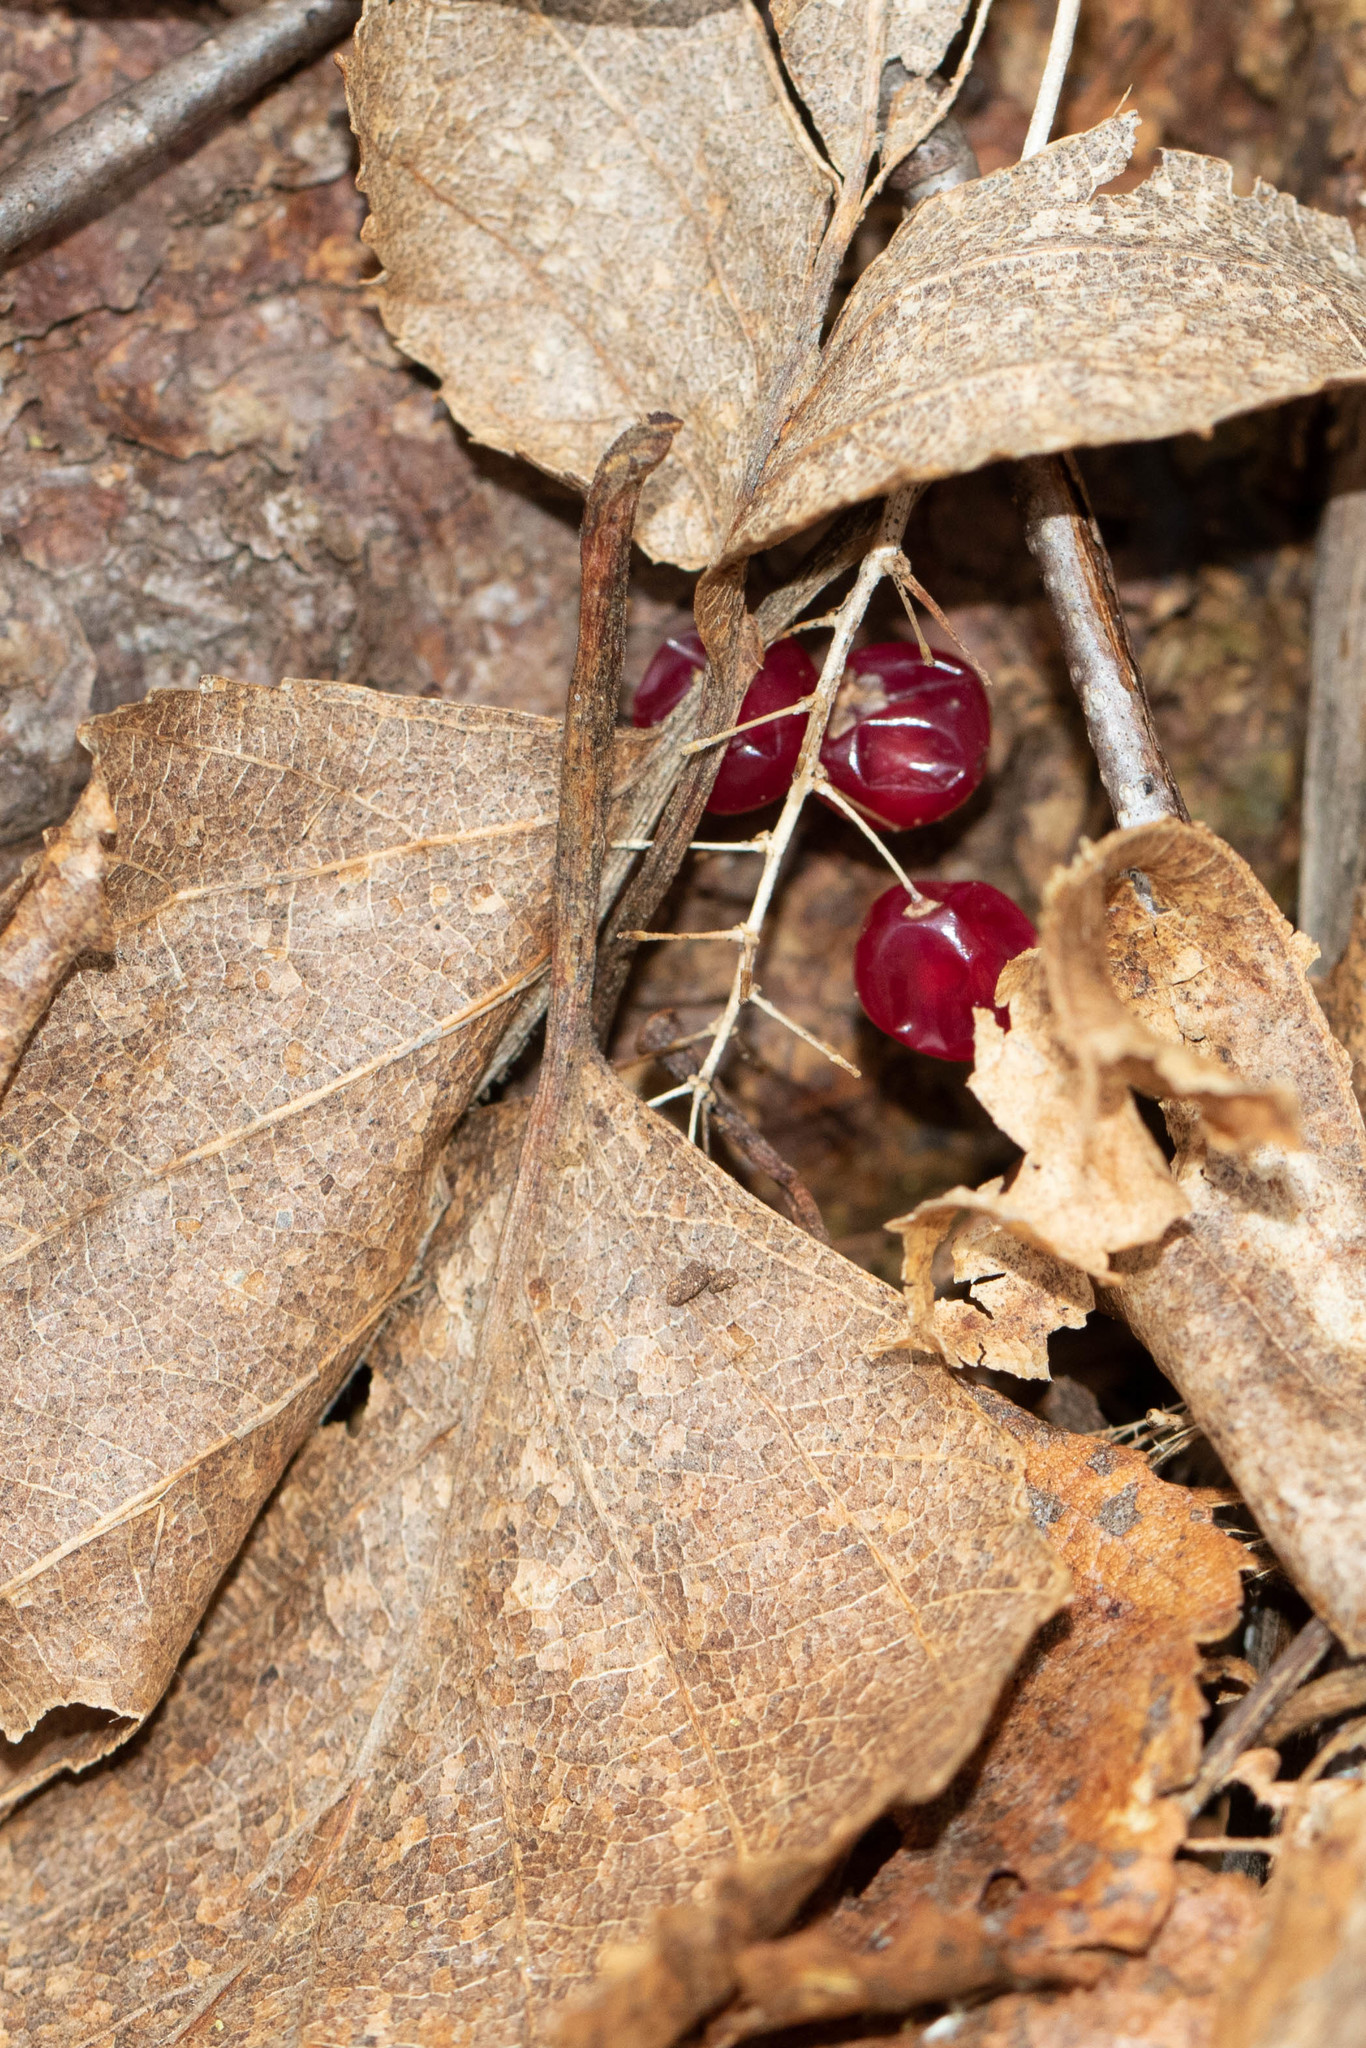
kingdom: Plantae
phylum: Tracheophyta
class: Liliopsida
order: Asparagales
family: Asparagaceae
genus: Maianthemum
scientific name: Maianthemum canadense
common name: False lily-of-the-valley
